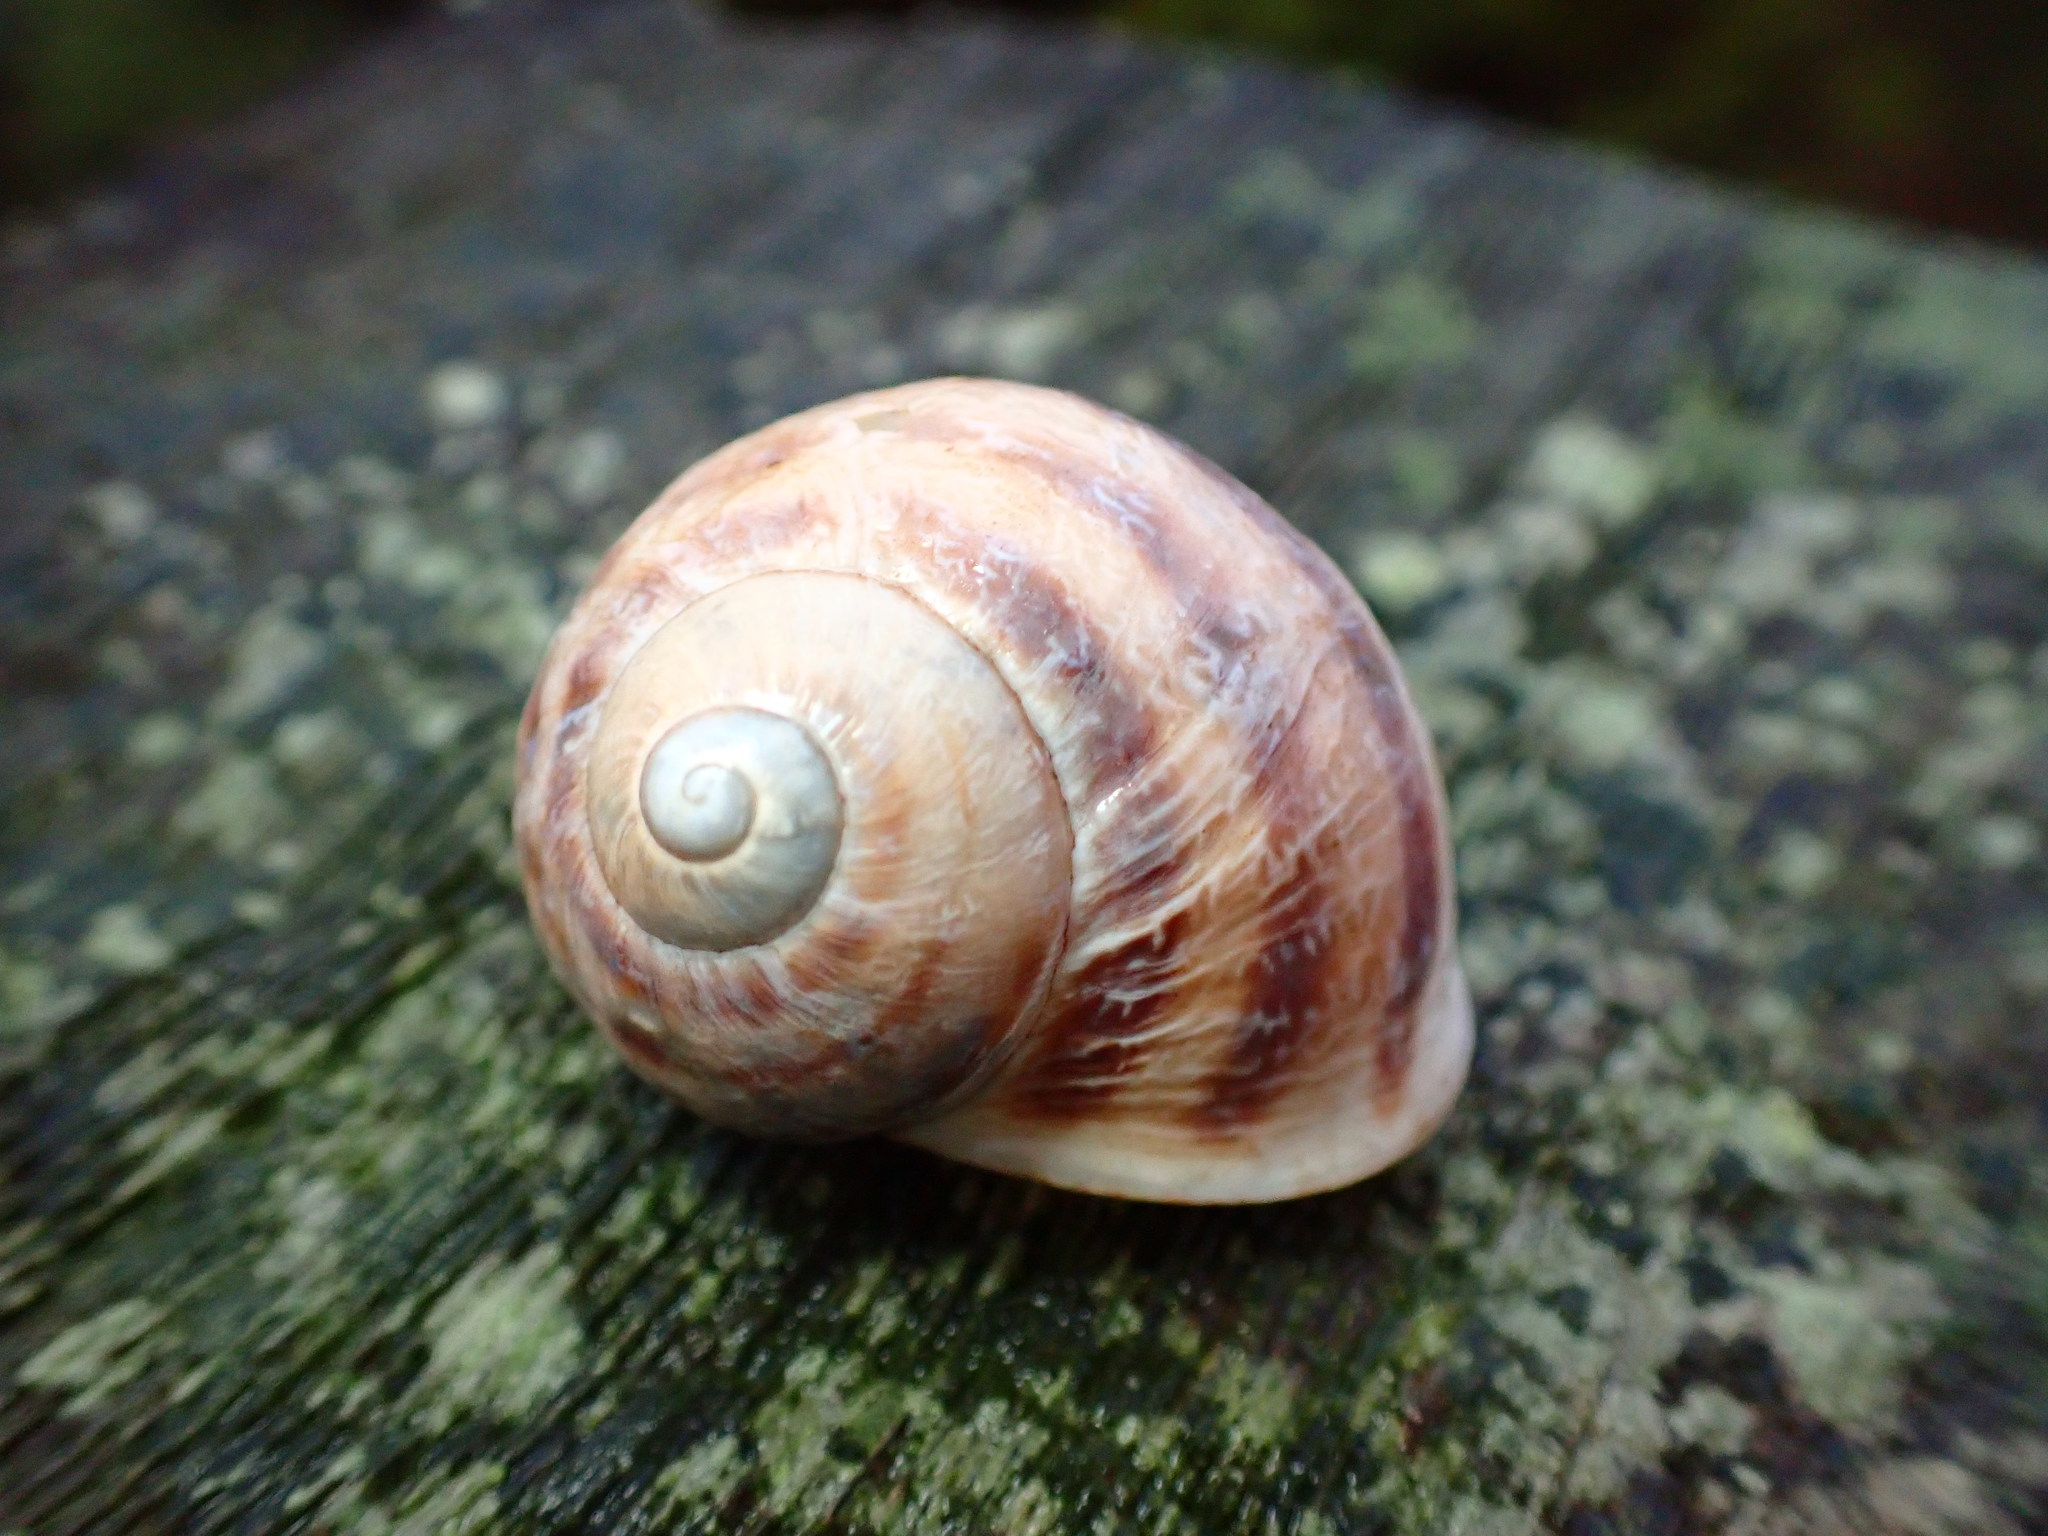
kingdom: Animalia
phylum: Mollusca
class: Gastropoda
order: Stylommatophora
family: Helicidae
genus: Cornu
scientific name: Cornu aspersum
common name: Brown garden snail
